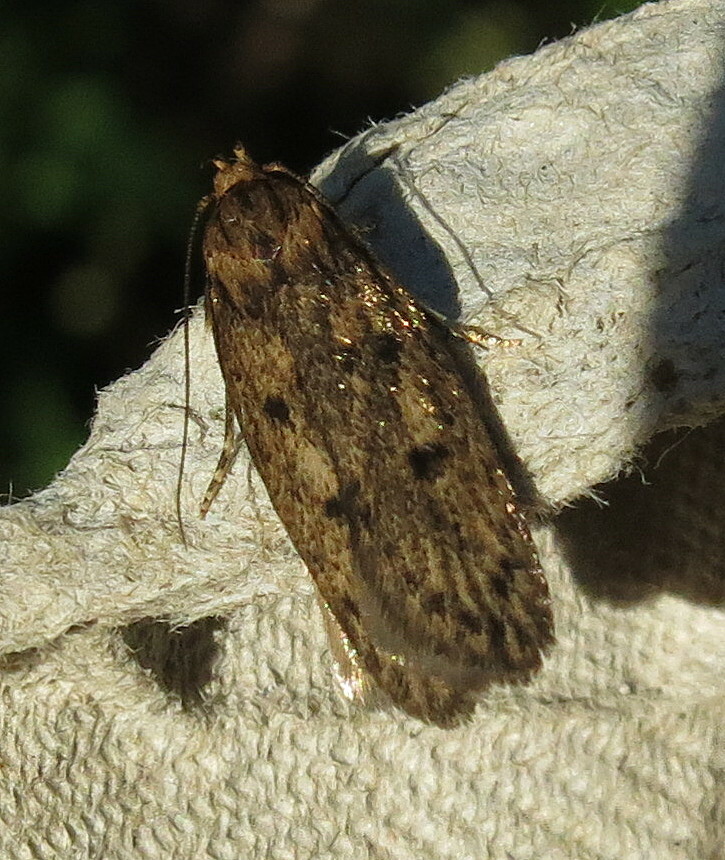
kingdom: Animalia
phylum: Arthropoda
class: Insecta
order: Lepidoptera
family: Oecophoridae
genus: Hofmannophila
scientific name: Hofmannophila pseudospretella
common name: Brown house moth
